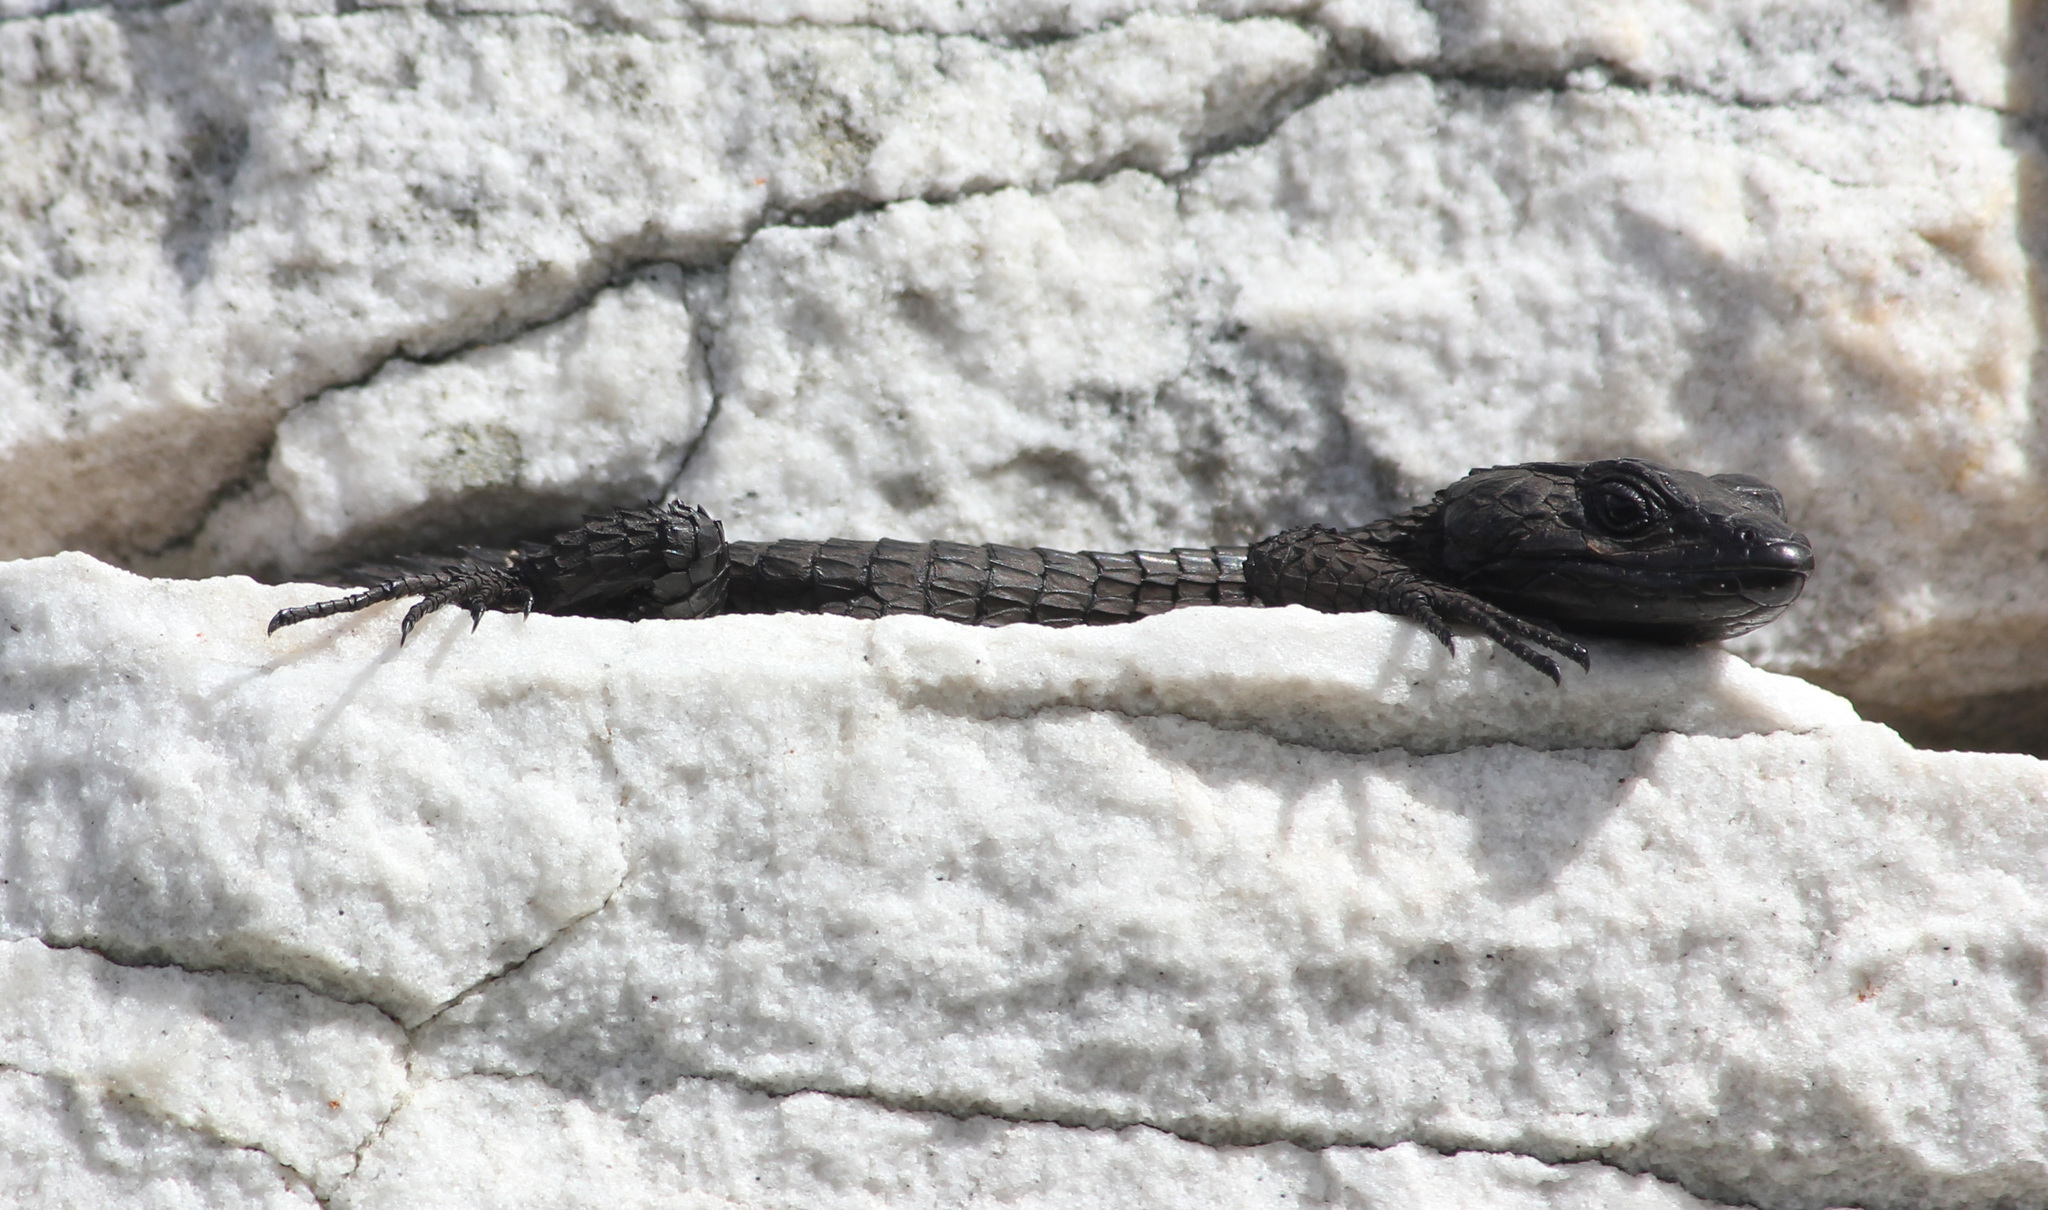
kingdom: Animalia
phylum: Chordata
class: Squamata
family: Cordylidae
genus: Cordylus
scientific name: Cordylus niger
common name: Black girdled lizard
